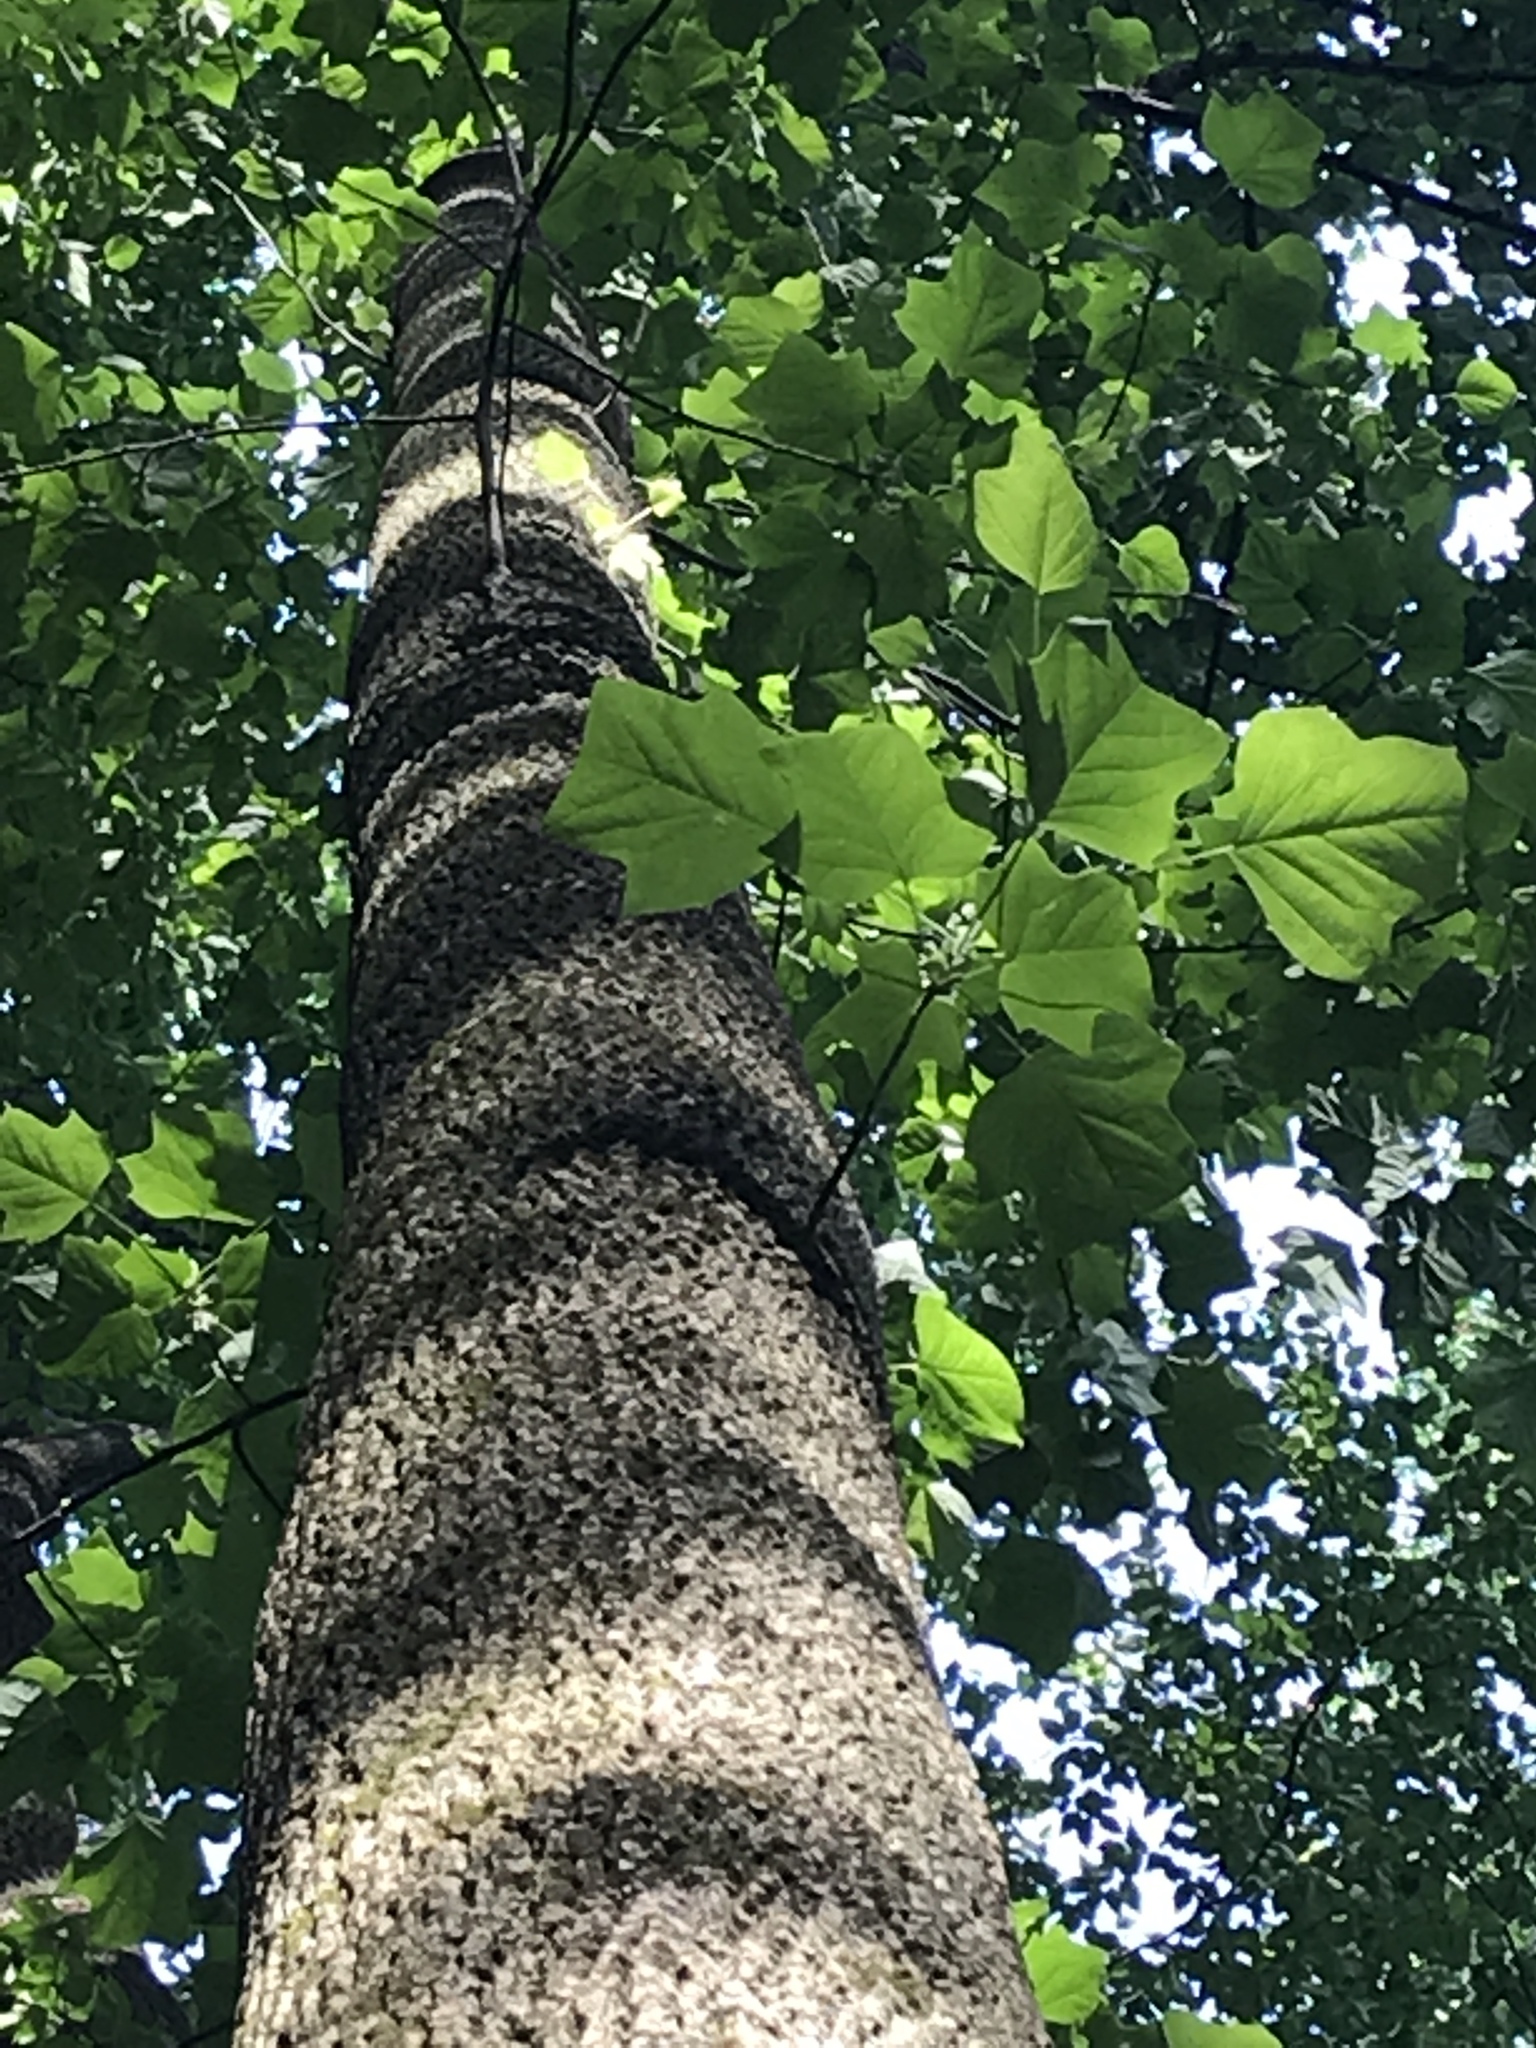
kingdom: Plantae
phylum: Tracheophyta
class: Magnoliopsida
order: Magnoliales
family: Magnoliaceae
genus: Liriodendron
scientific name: Liriodendron tulipifera
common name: Tulip tree
